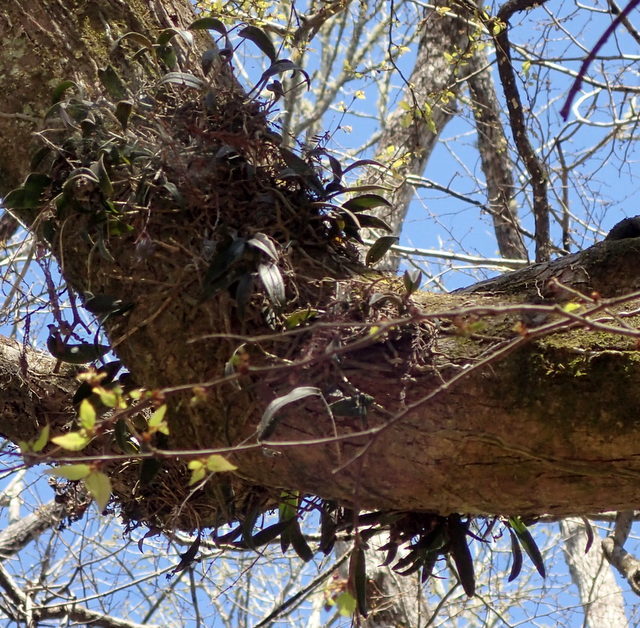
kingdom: Plantae
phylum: Tracheophyta
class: Liliopsida
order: Asparagales
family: Orchidaceae
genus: Epidendrum
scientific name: Epidendrum conopseum
